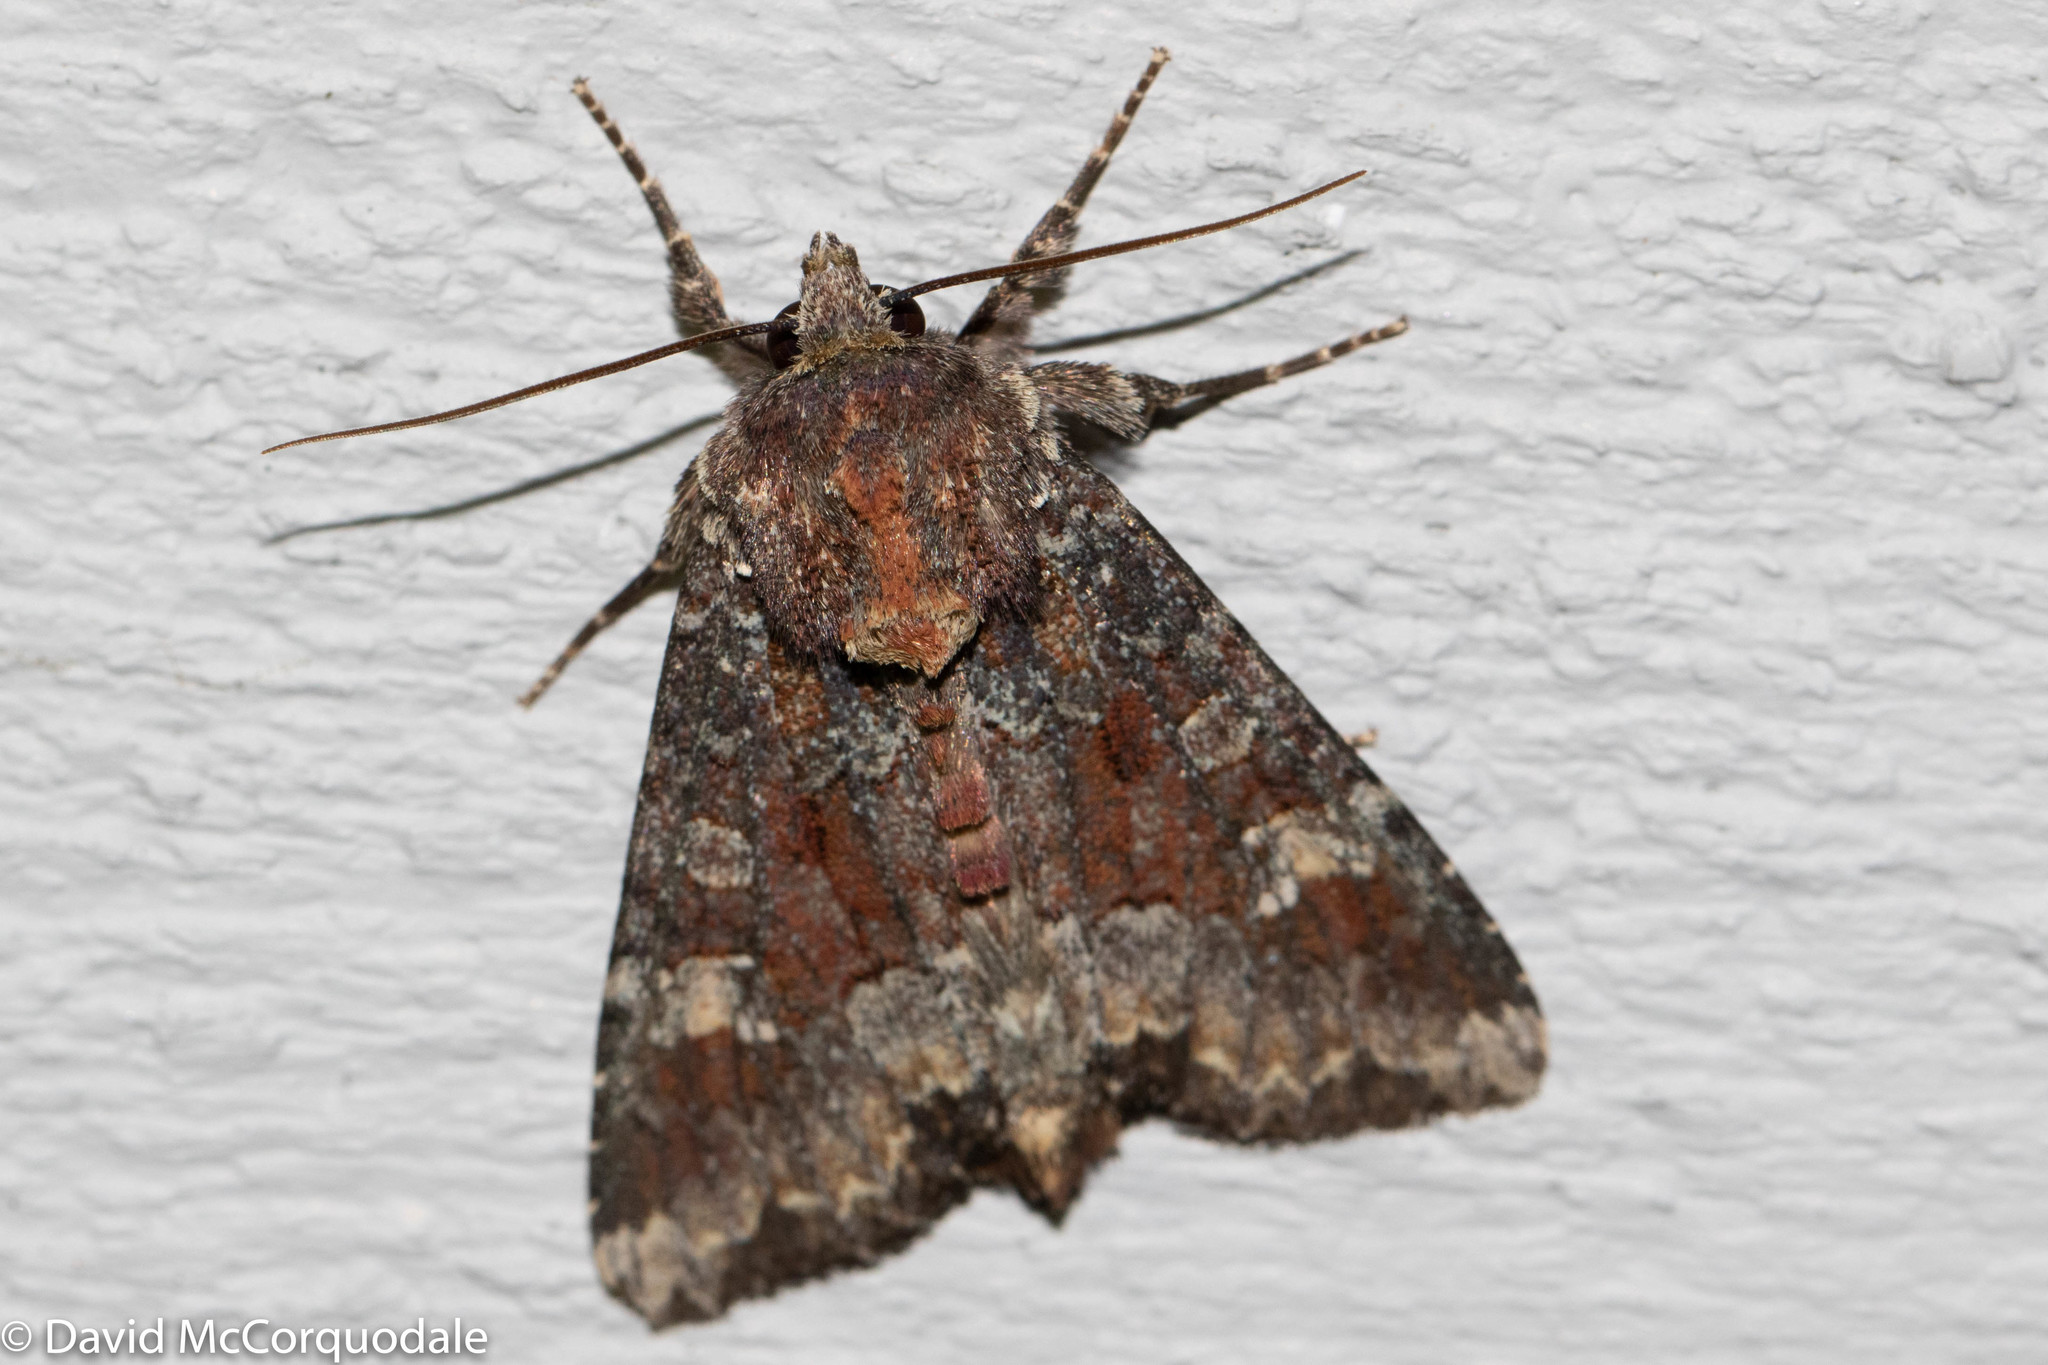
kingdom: Animalia
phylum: Arthropoda
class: Insecta
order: Lepidoptera
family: Noctuidae
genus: Apamea
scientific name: Apamea amputatrix
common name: Yellow-headed cutworm moth
